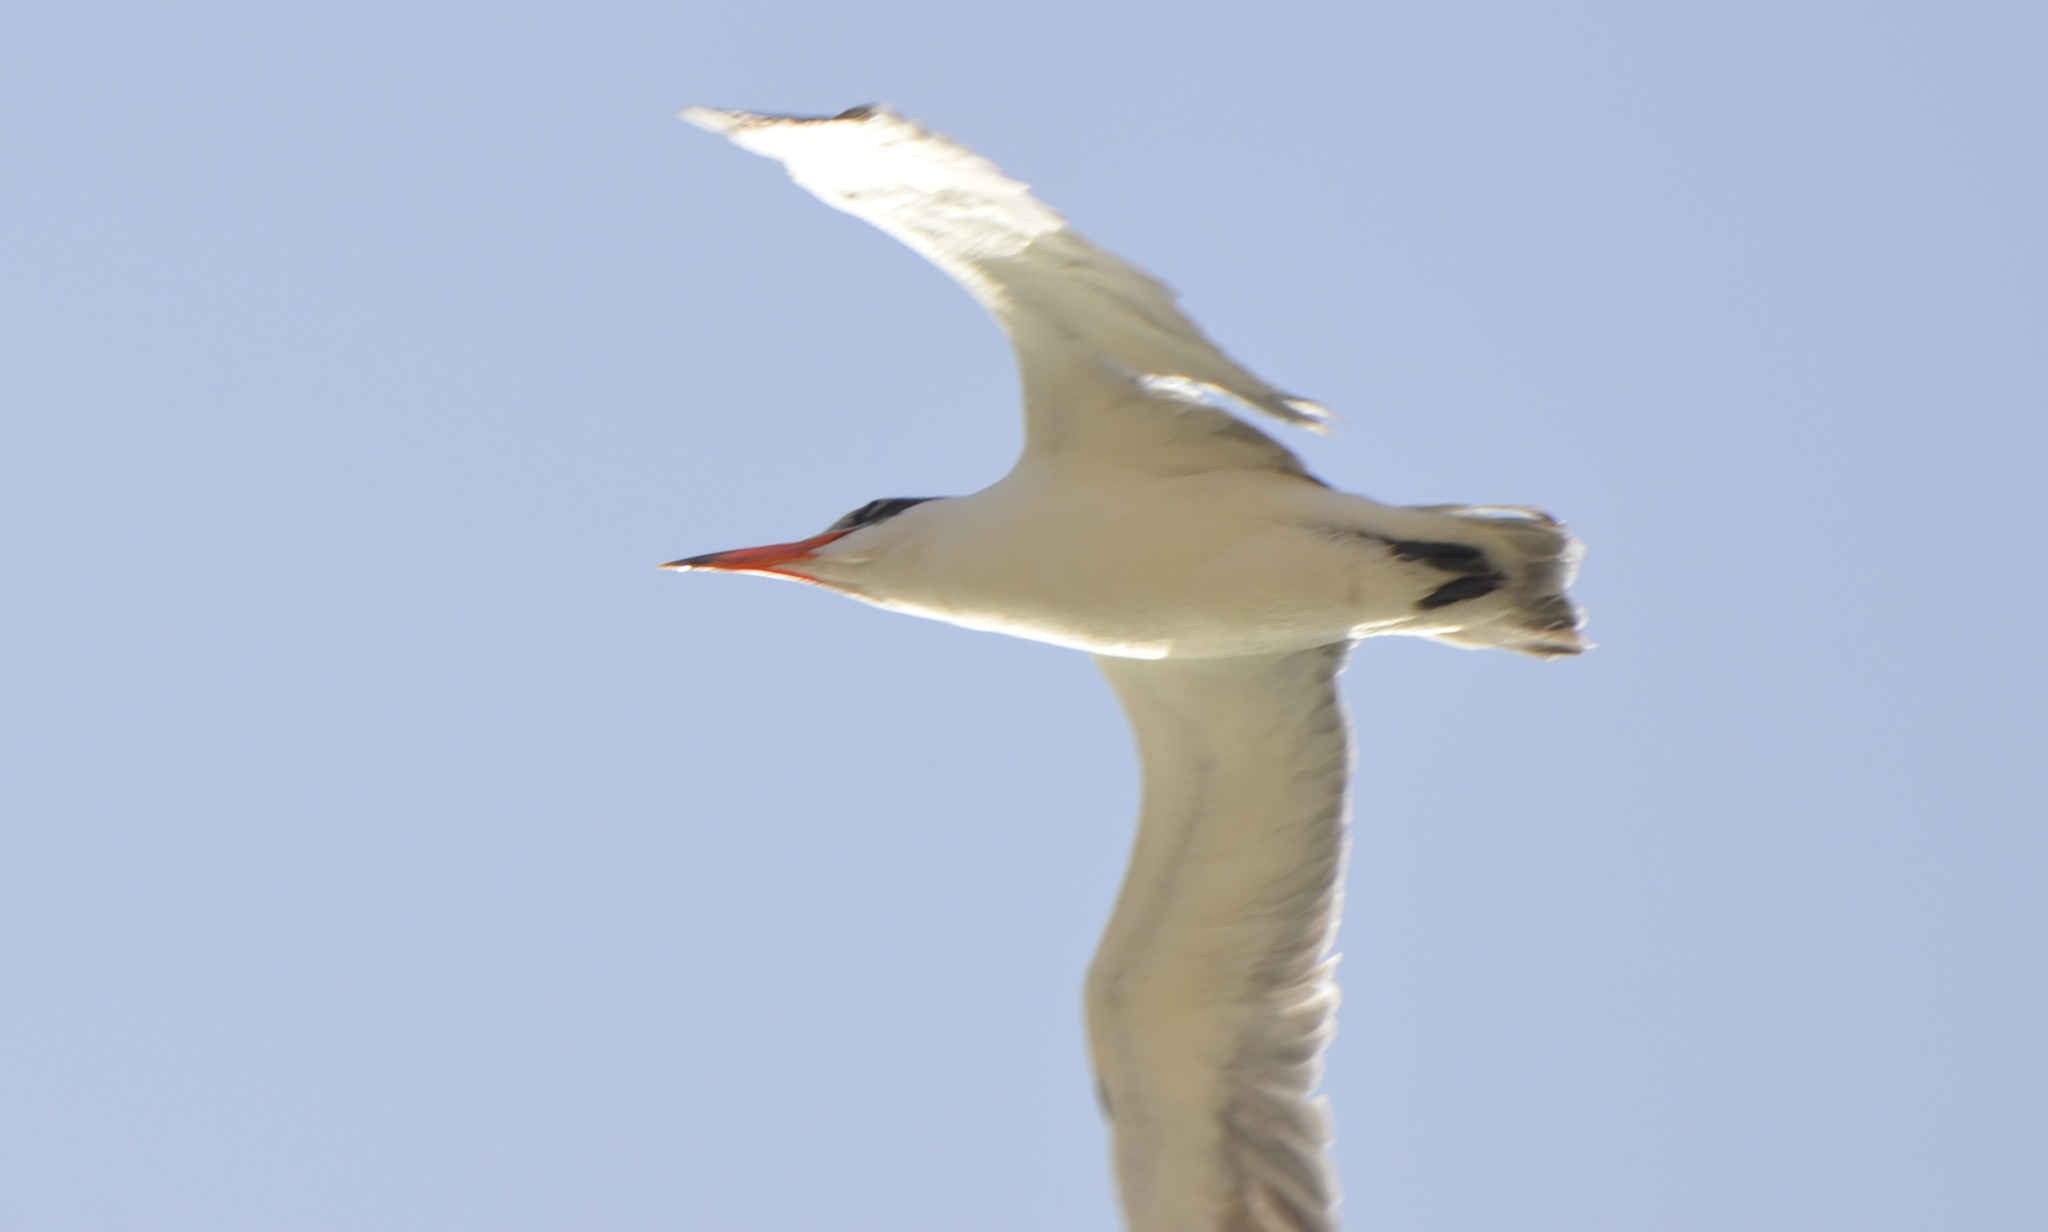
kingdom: Animalia
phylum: Chordata
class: Aves
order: Charadriiformes
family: Laridae
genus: Hydroprogne
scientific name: Hydroprogne caspia
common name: Caspian tern
